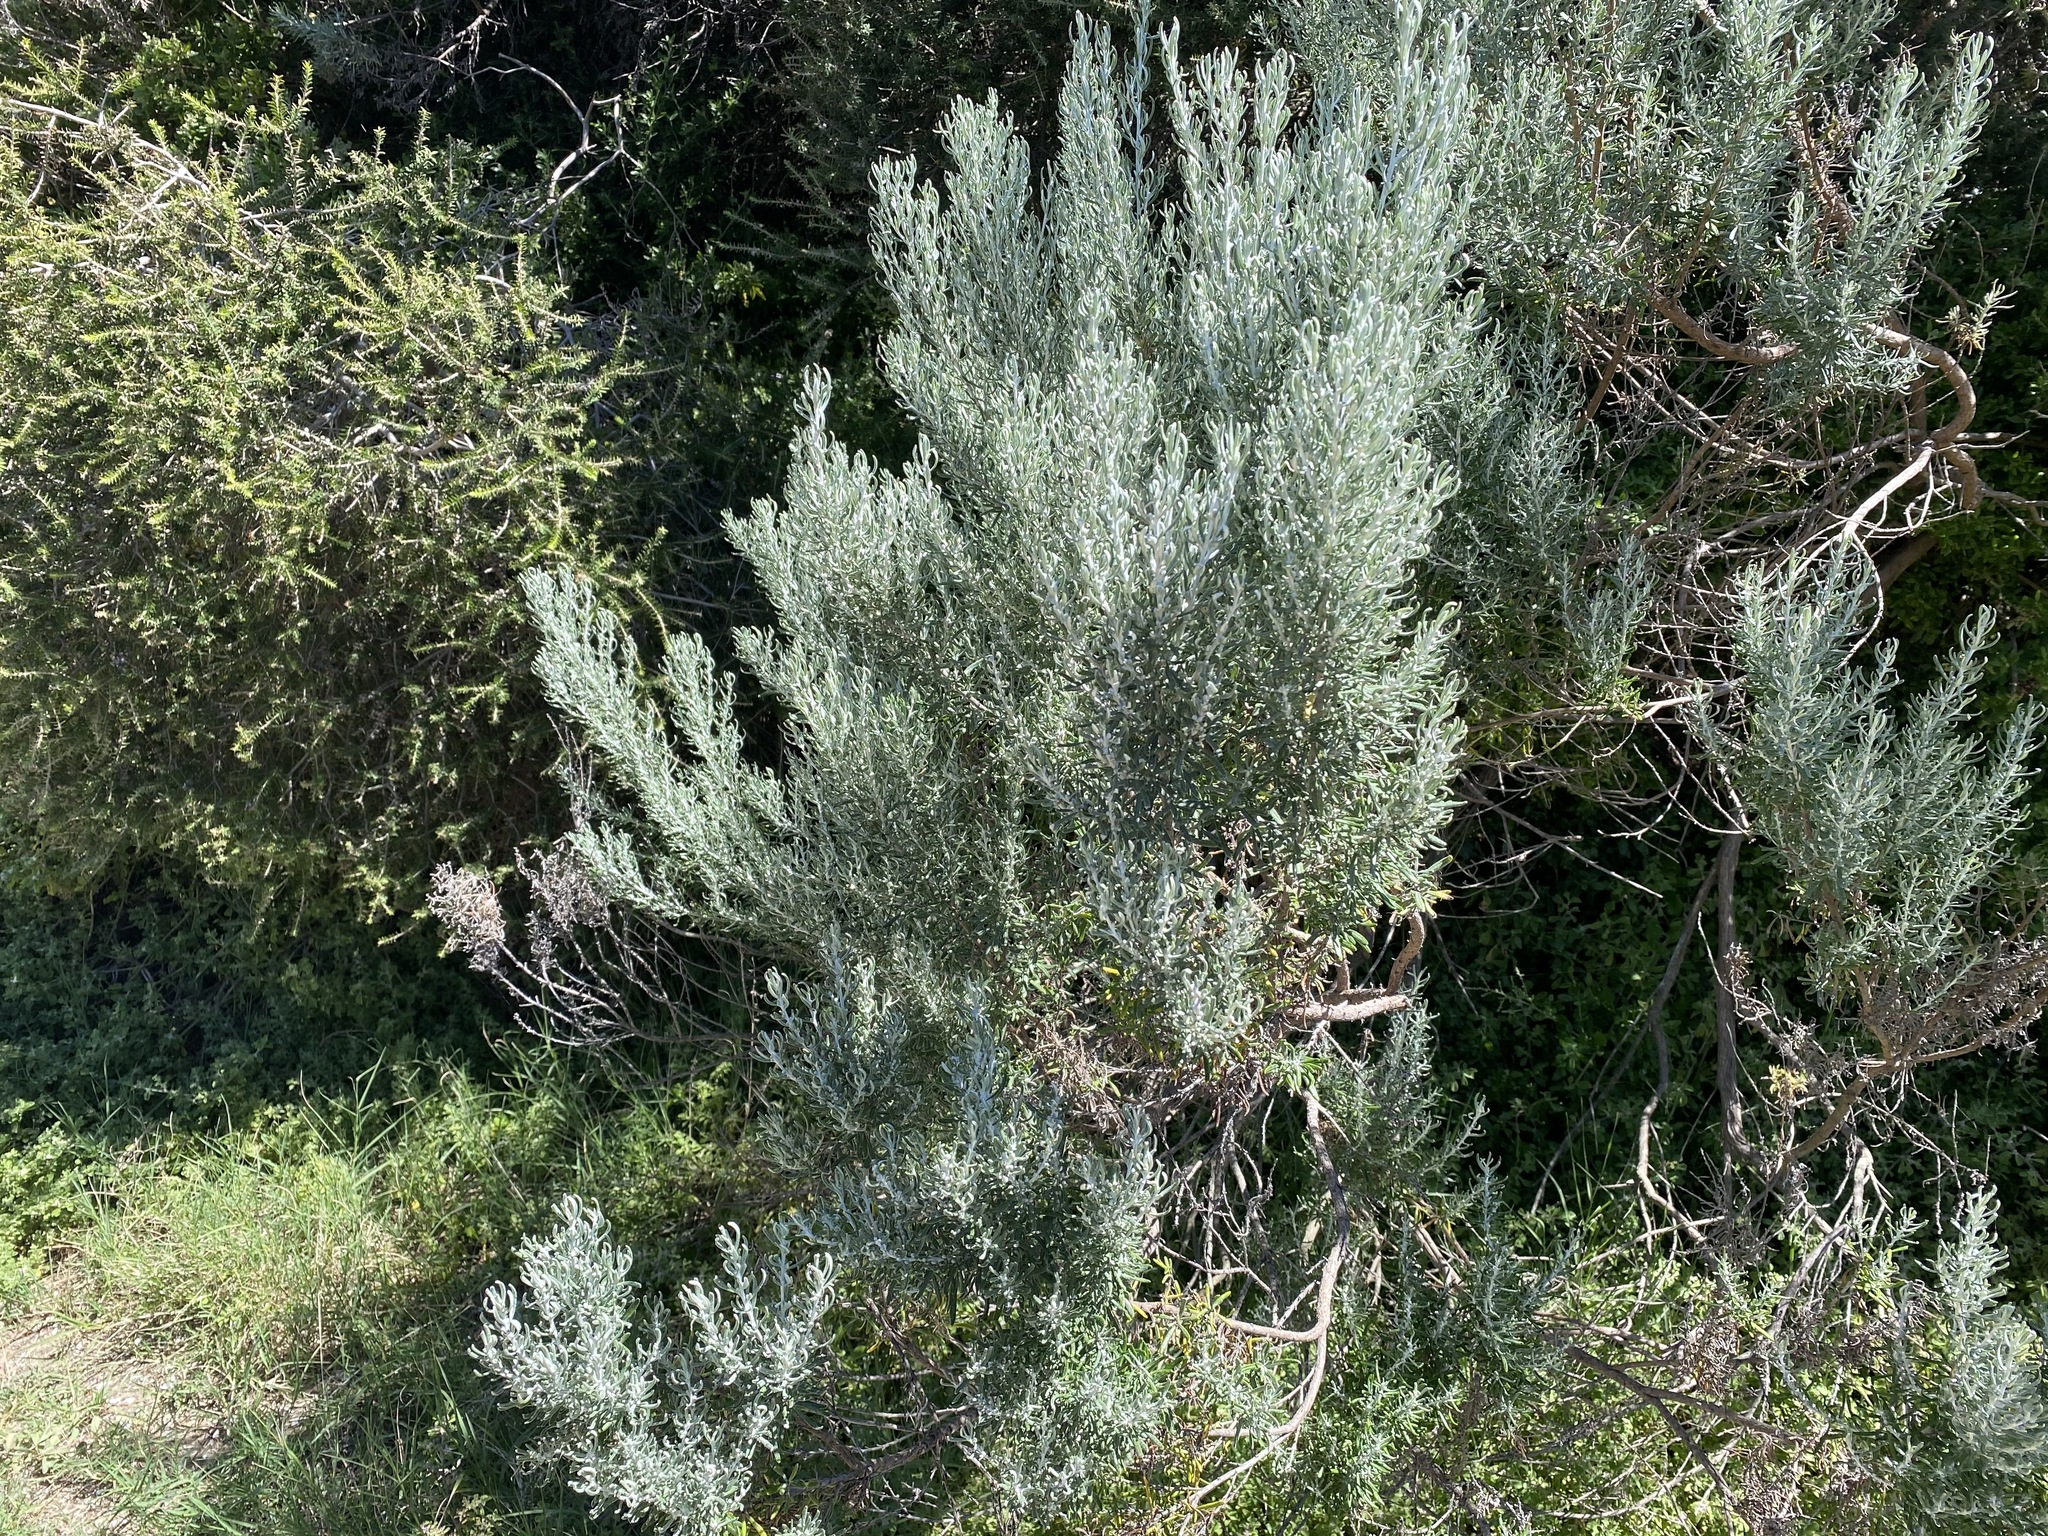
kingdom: Plantae
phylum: Tracheophyta
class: Magnoliopsida
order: Asterales
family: Asteraceae
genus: Olearia
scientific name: Olearia axillaris
